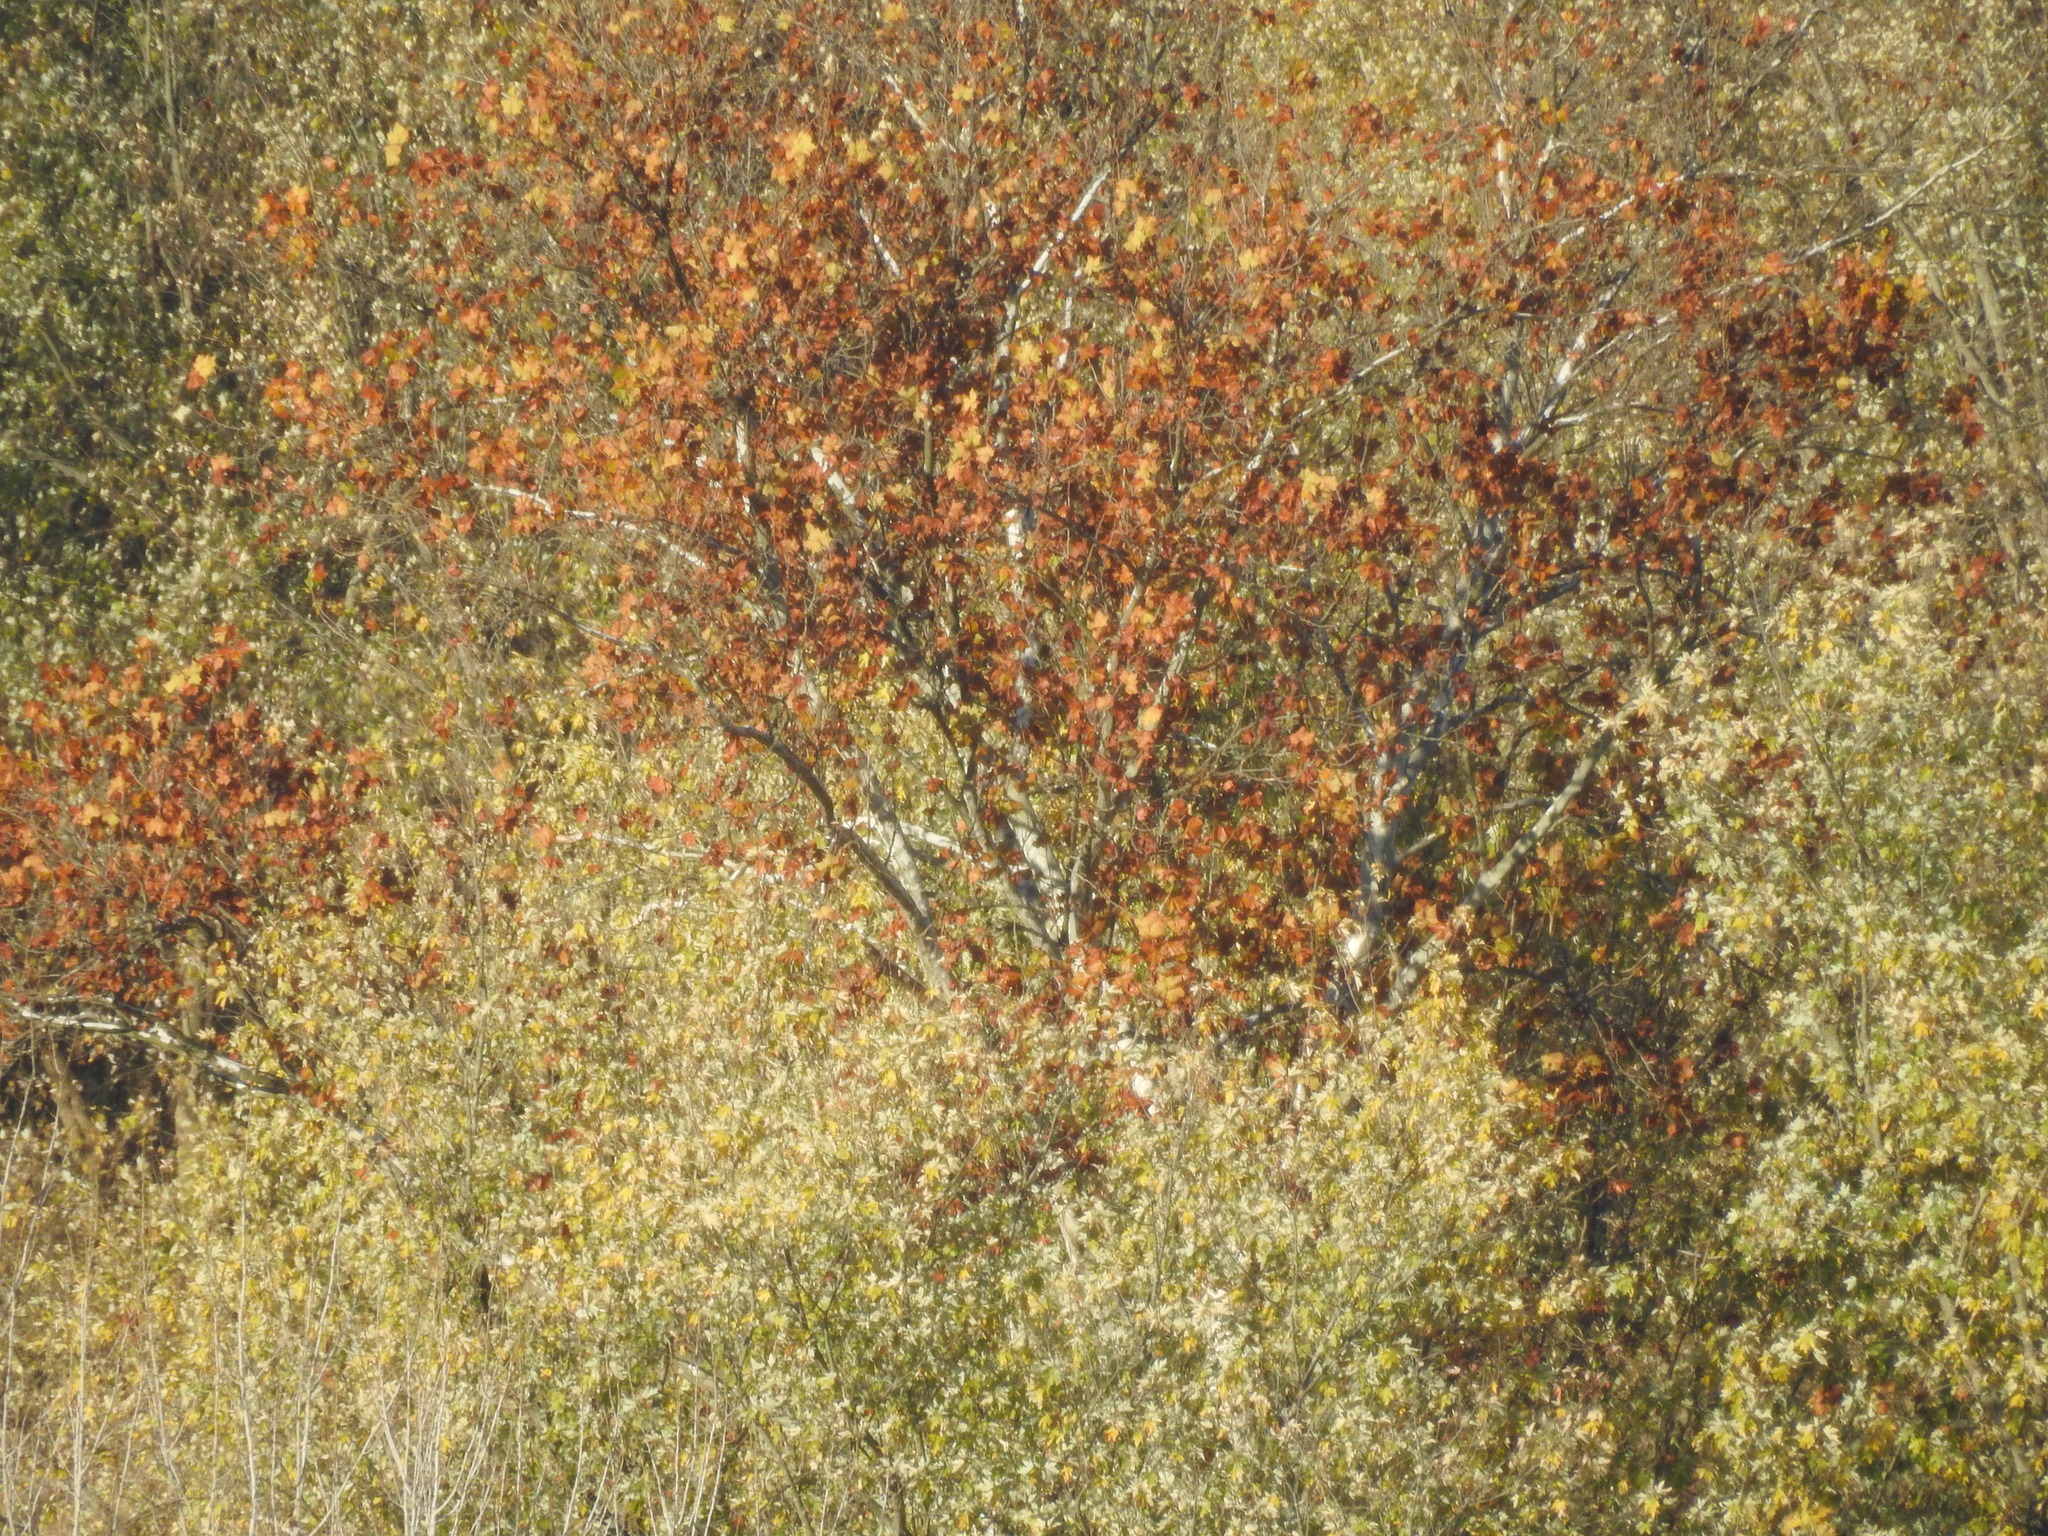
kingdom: Plantae
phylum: Tracheophyta
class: Magnoliopsida
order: Proteales
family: Platanaceae
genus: Platanus
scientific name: Platanus occidentalis
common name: American sycamore
